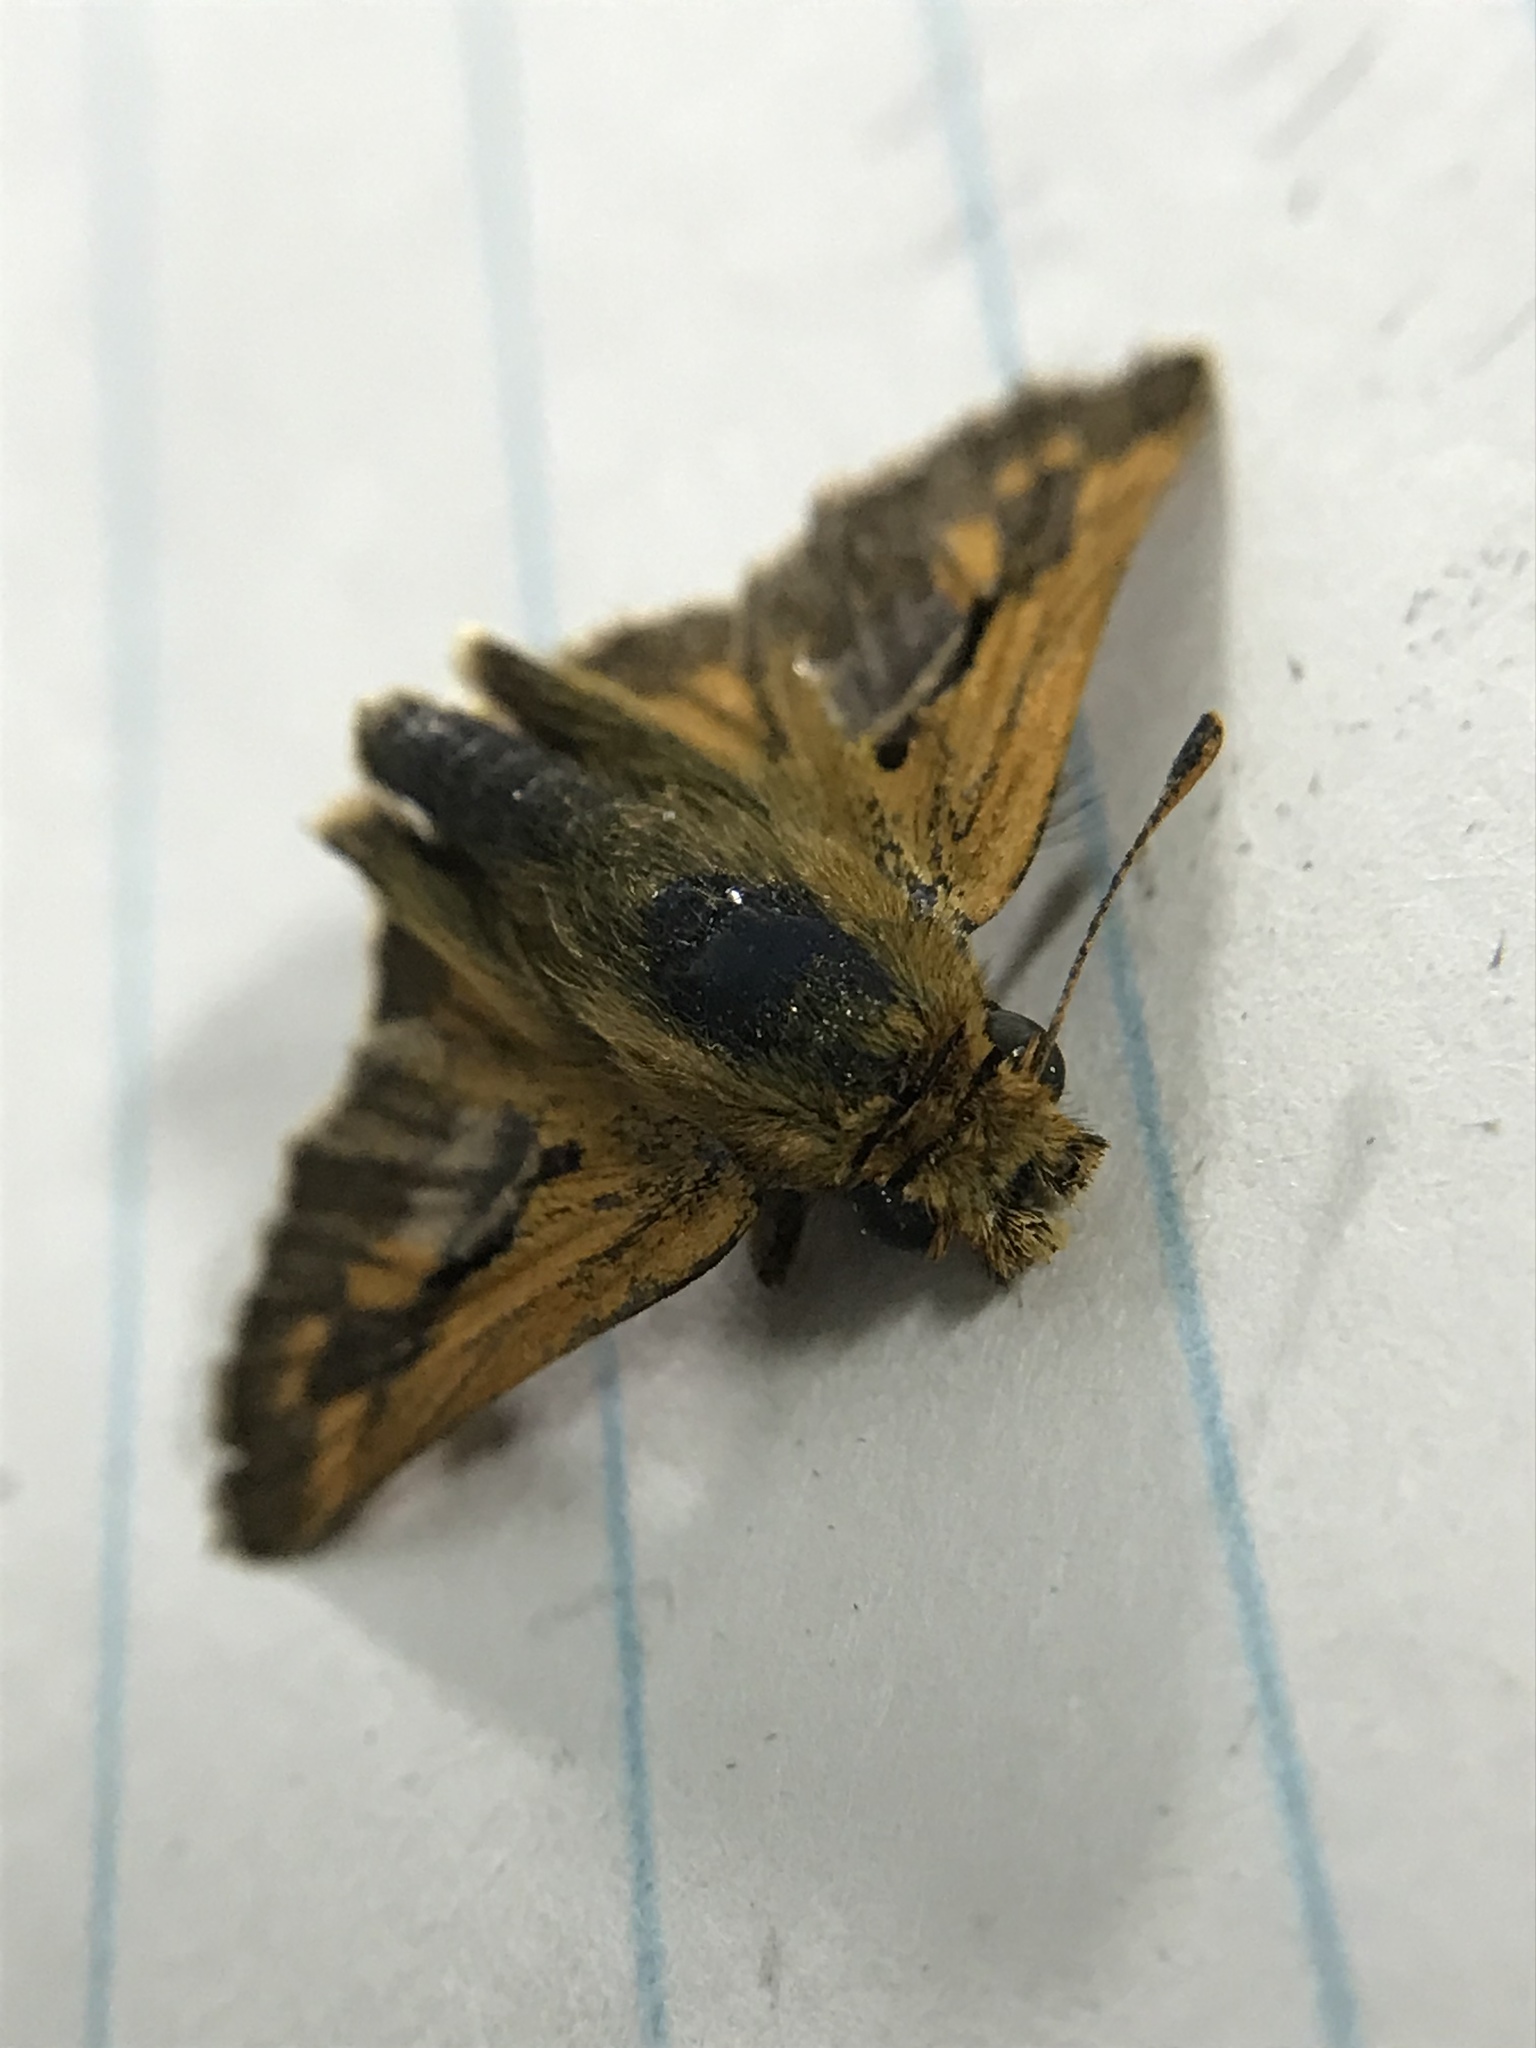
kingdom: Animalia
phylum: Arthropoda
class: Insecta
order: Lepidoptera
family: Hesperiidae
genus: Polites
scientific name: Polites coras
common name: Peck's skipper
